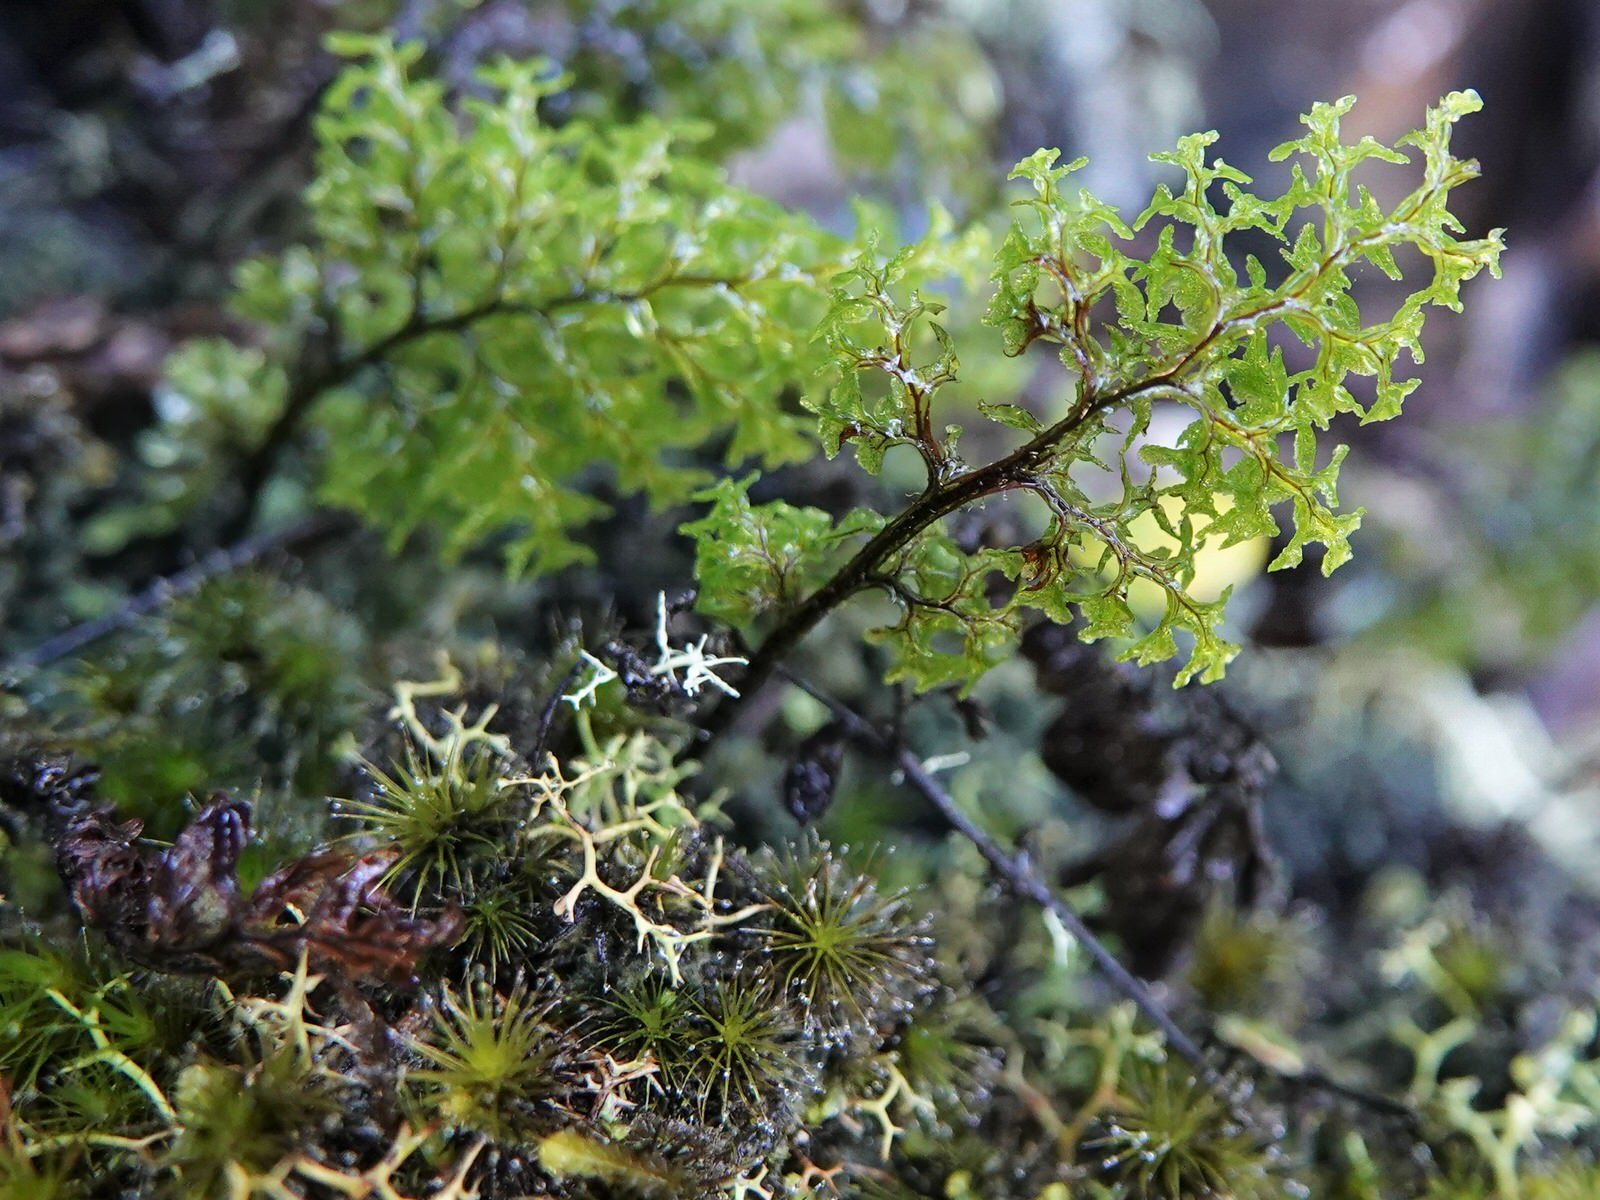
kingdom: Plantae
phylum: Tracheophyta
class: Polypodiopsida
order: Hymenophyllales
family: Hymenophyllaceae
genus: Hymenophyllum
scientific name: Hymenophyllum sanguinolentum
